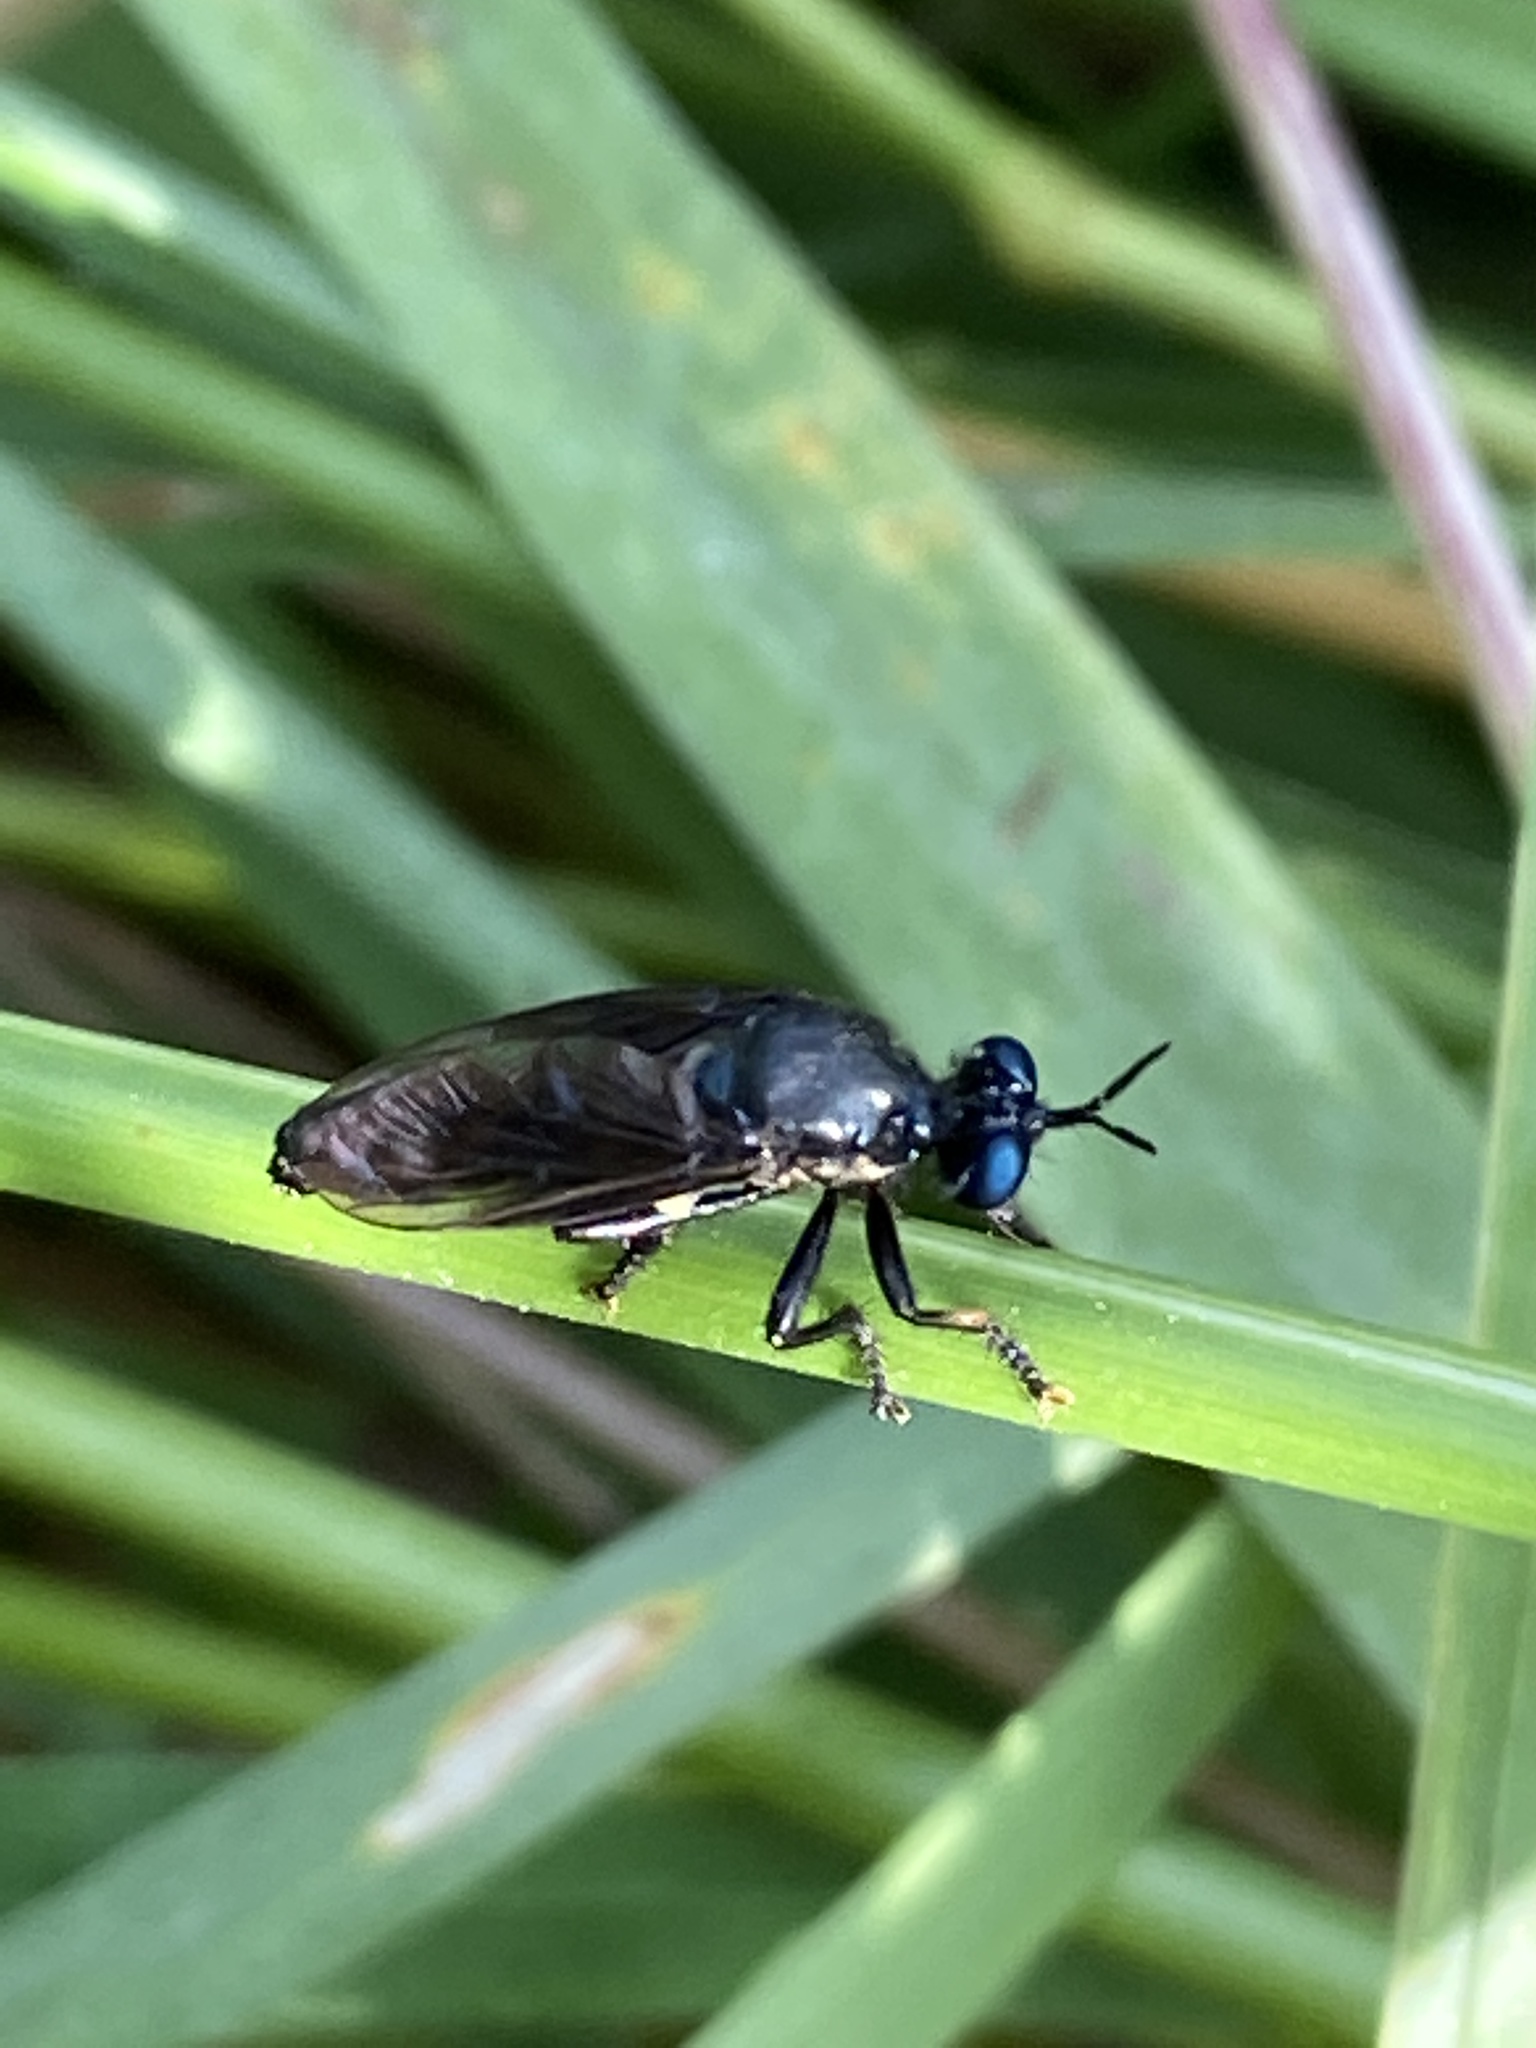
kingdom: Animalia
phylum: Arthropoda
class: Insecta
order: Diptera
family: Asilidae
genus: Dioctria
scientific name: Dioctria atricapilla
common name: Violet black-legged
